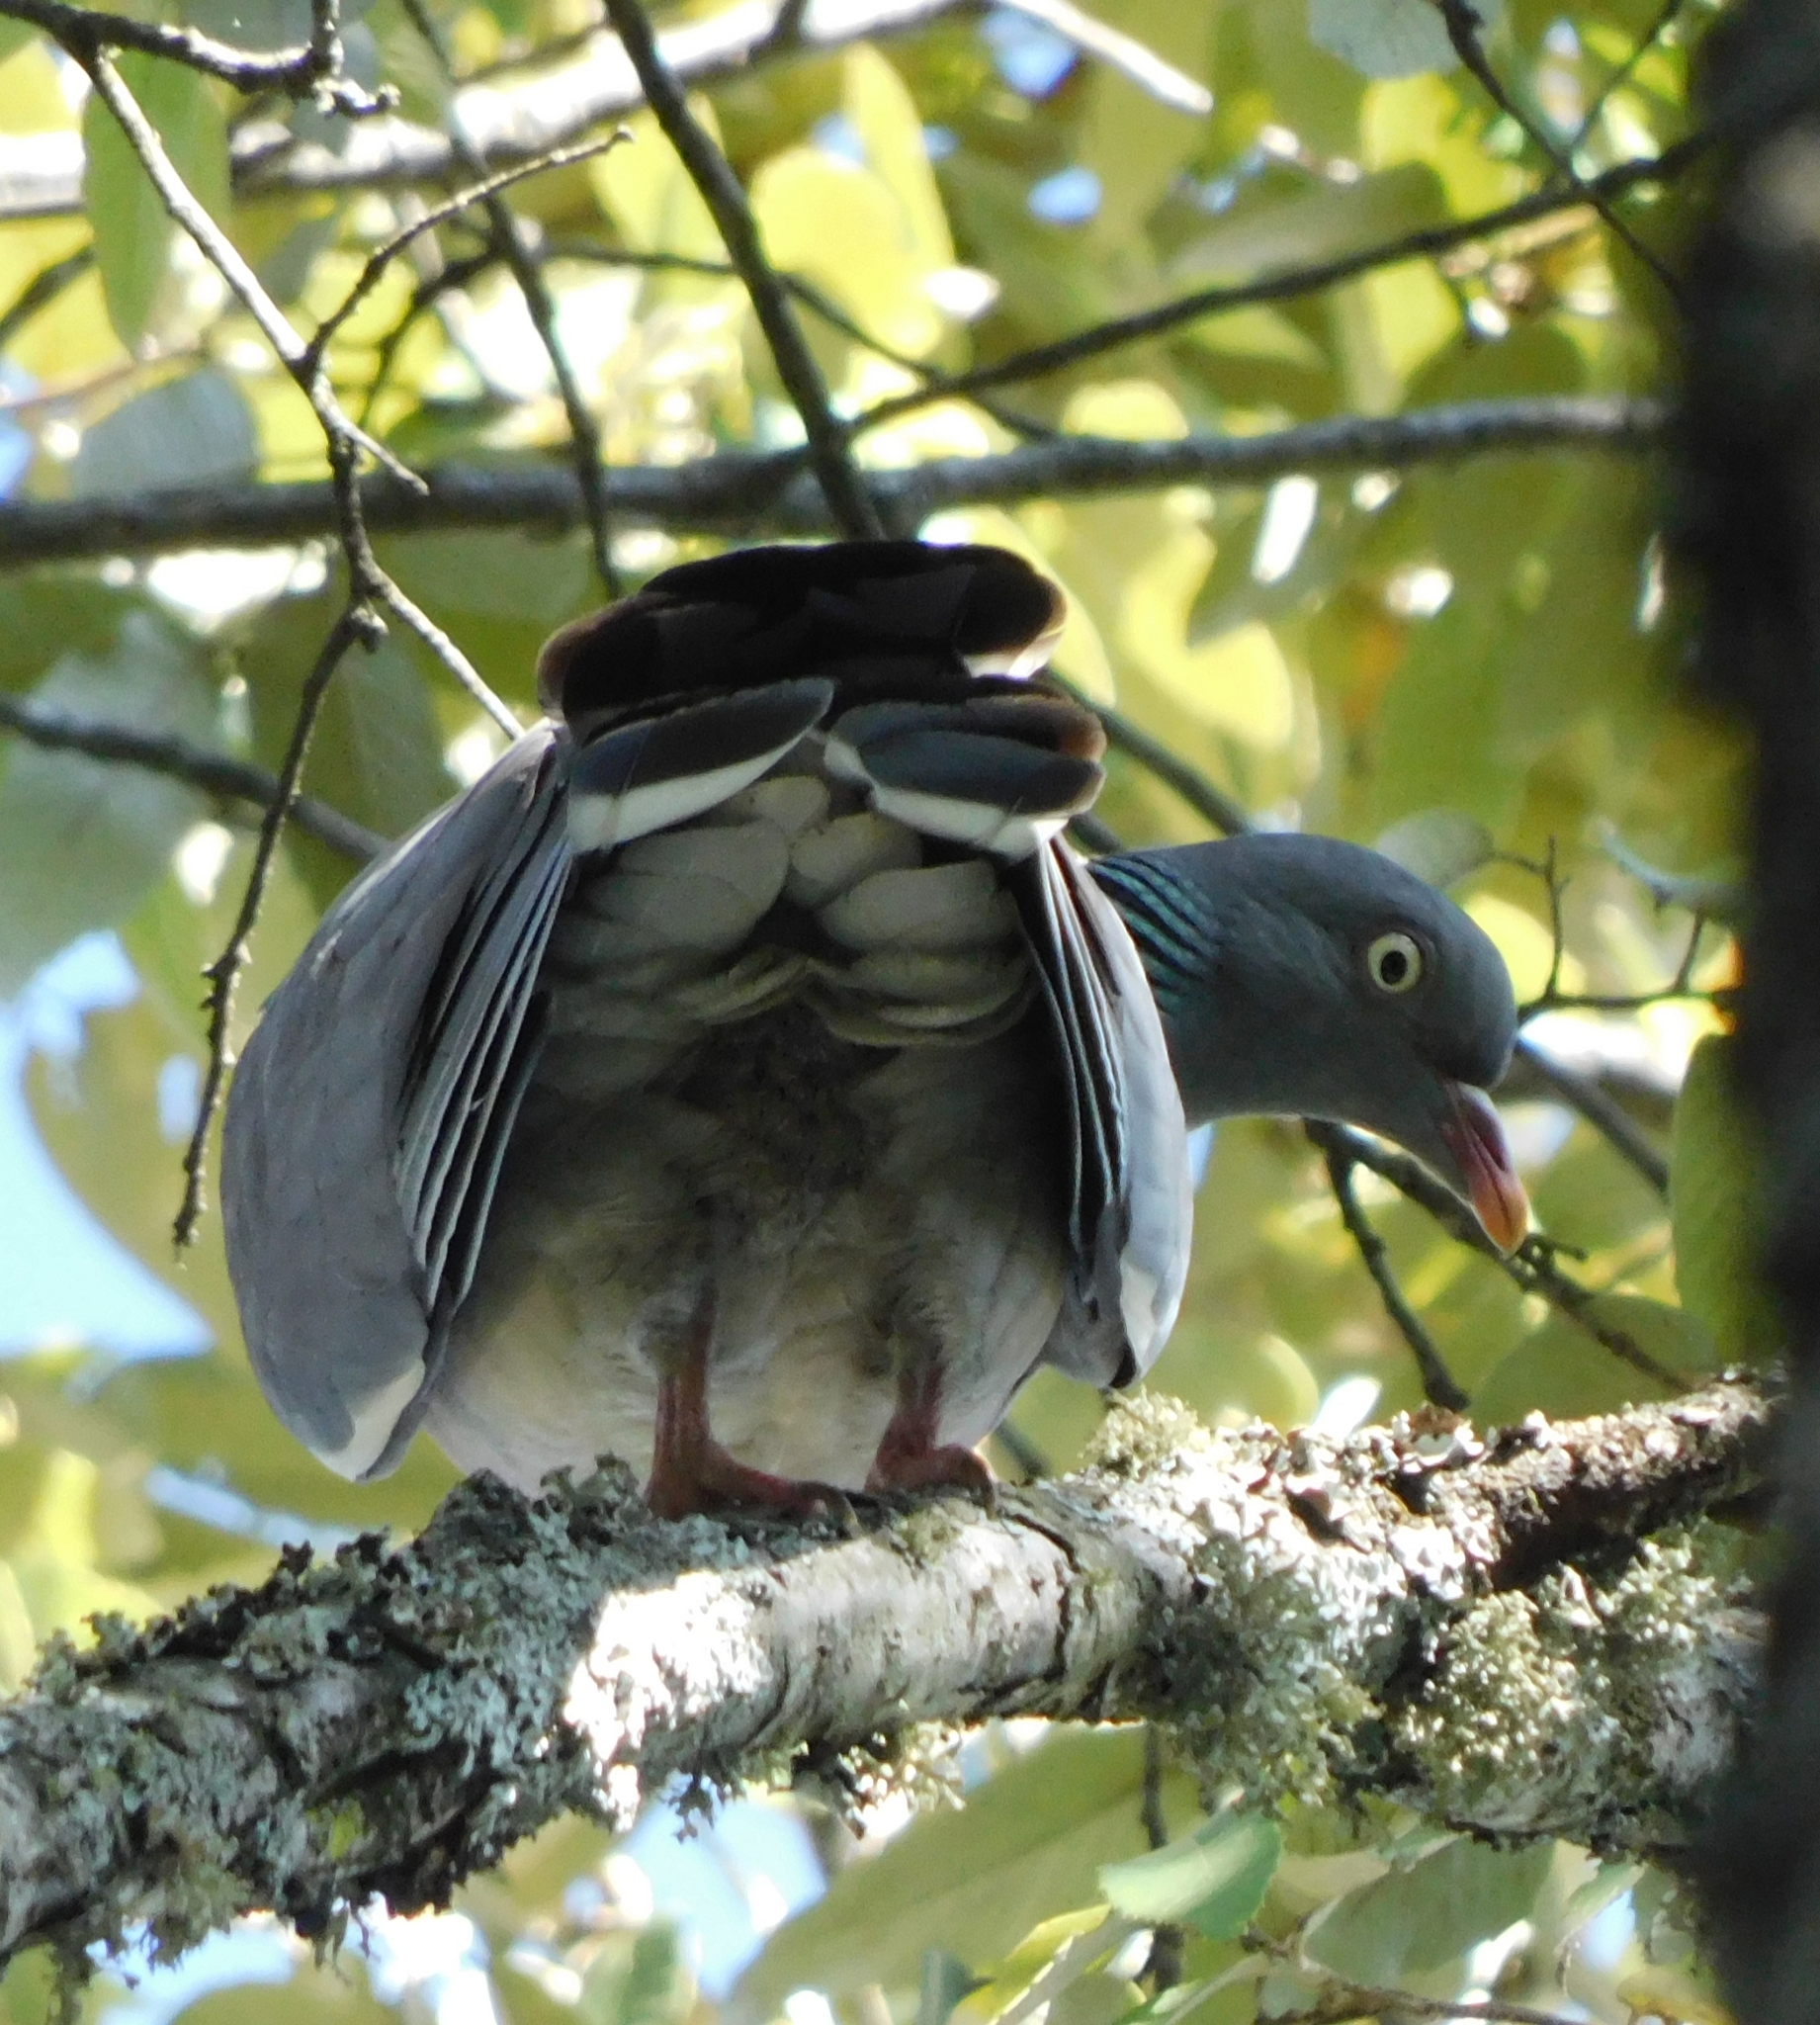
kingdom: Animalia
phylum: Chordata
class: Aves
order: Columbiformes
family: Columbidae
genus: Columba
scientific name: Columba palumbus
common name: Common wood pigeon
